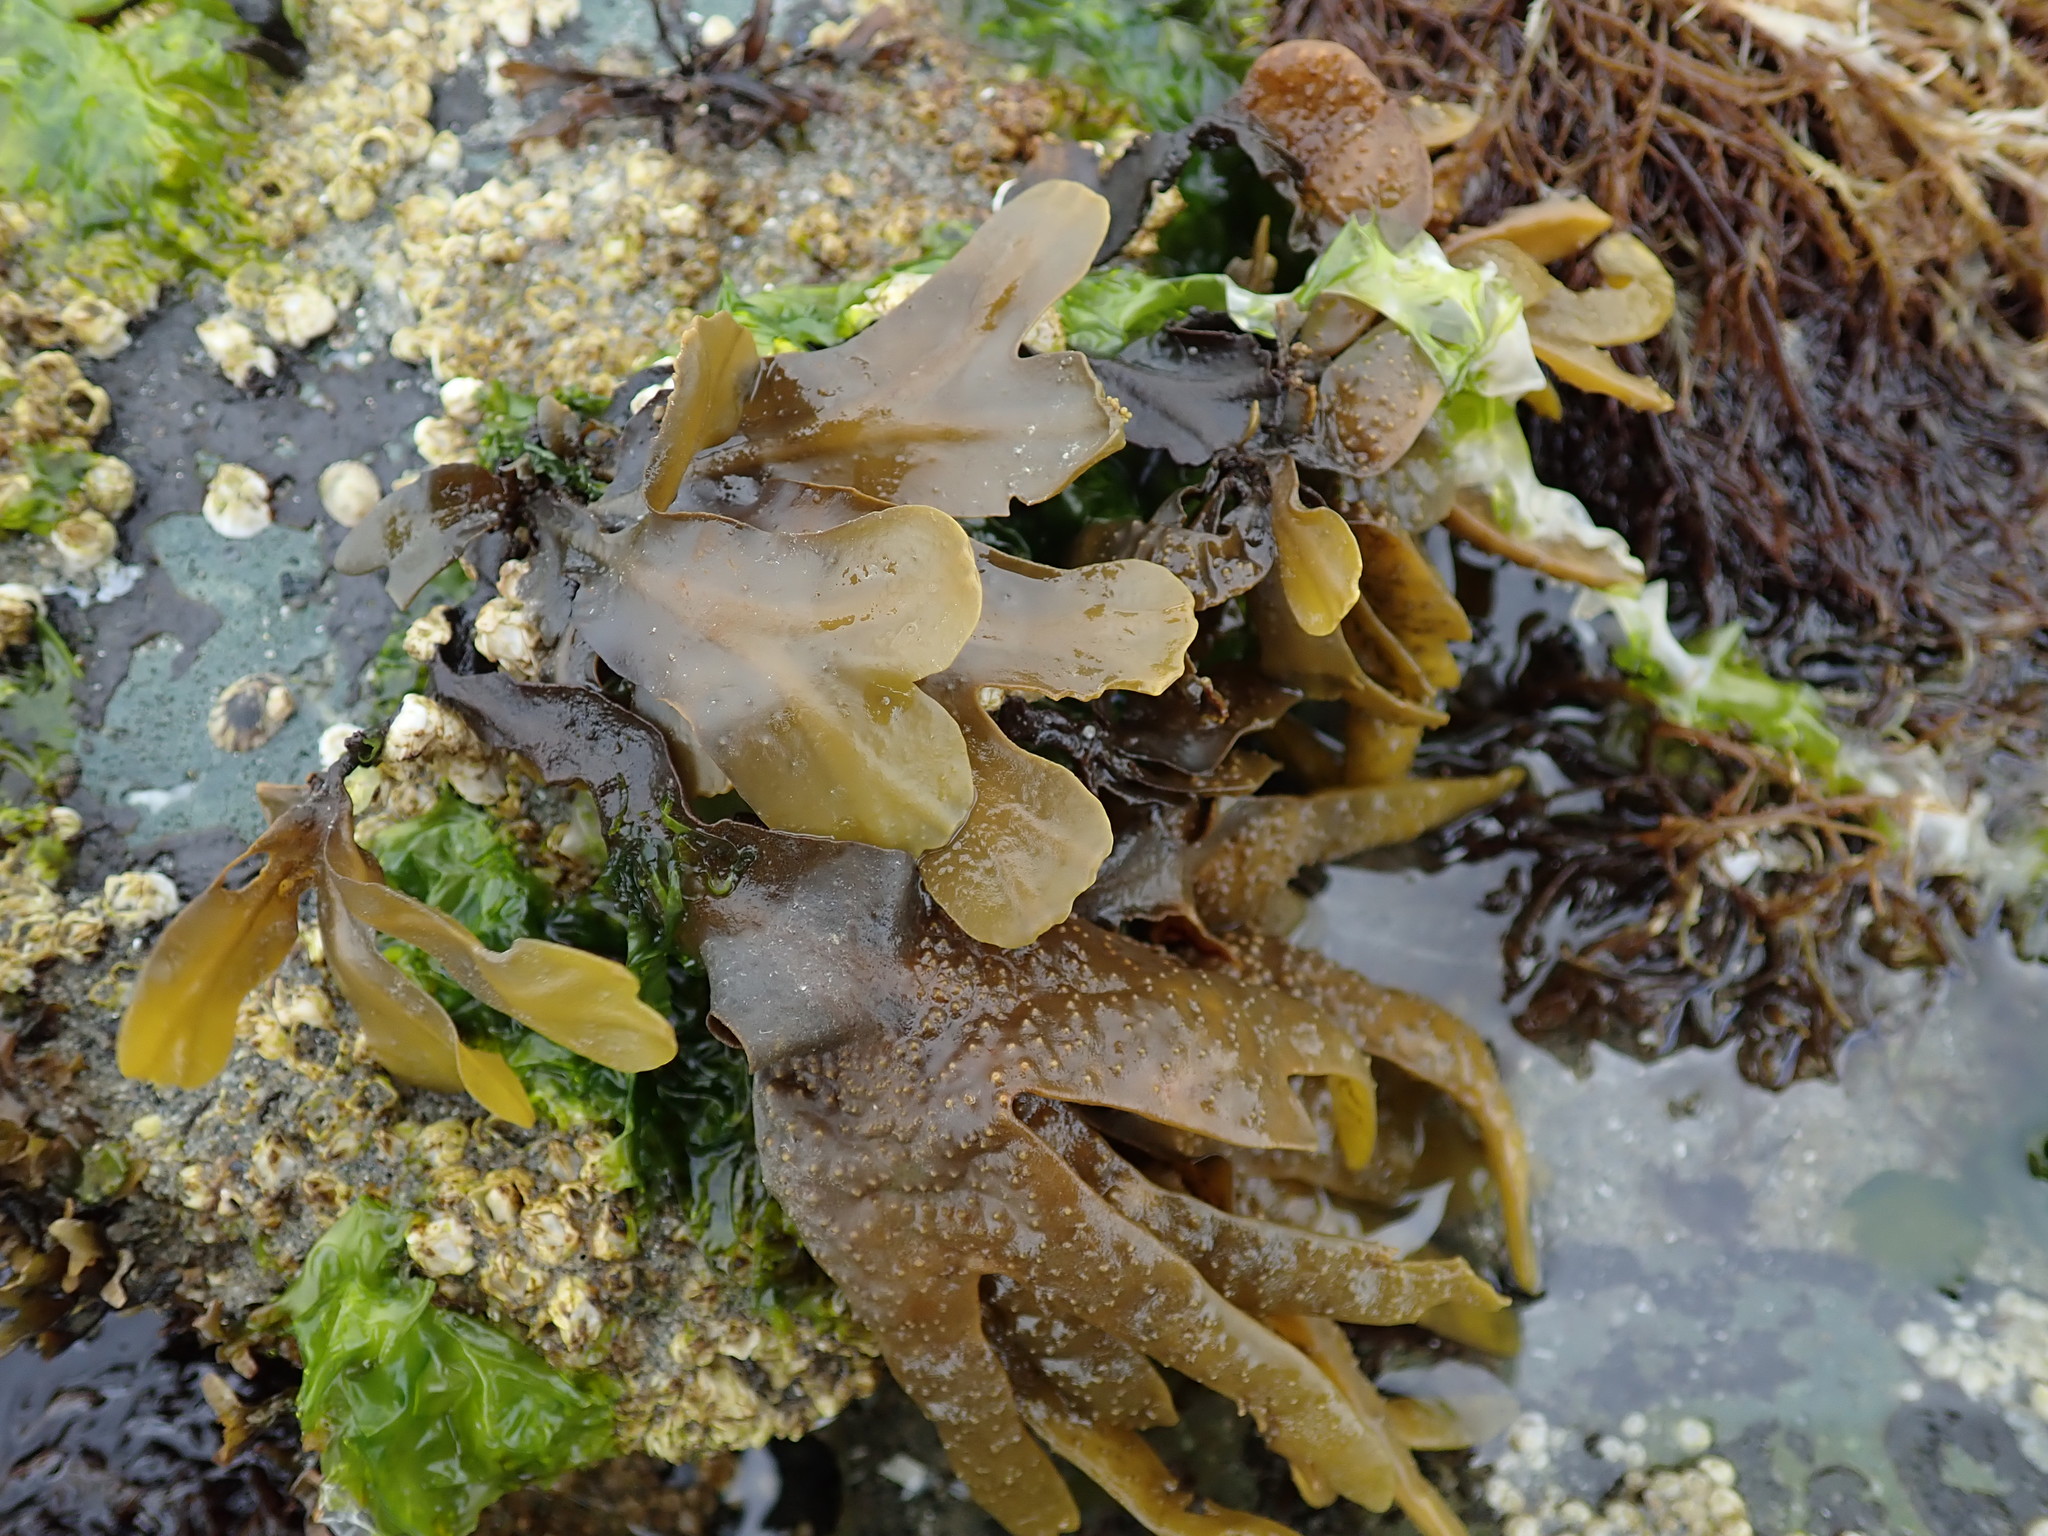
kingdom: Chromista
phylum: Ochrophyta
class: Phaeophyceae
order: Fucales
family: Fucaceae
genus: Fucus
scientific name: Fucus distichus
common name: Rockweed
